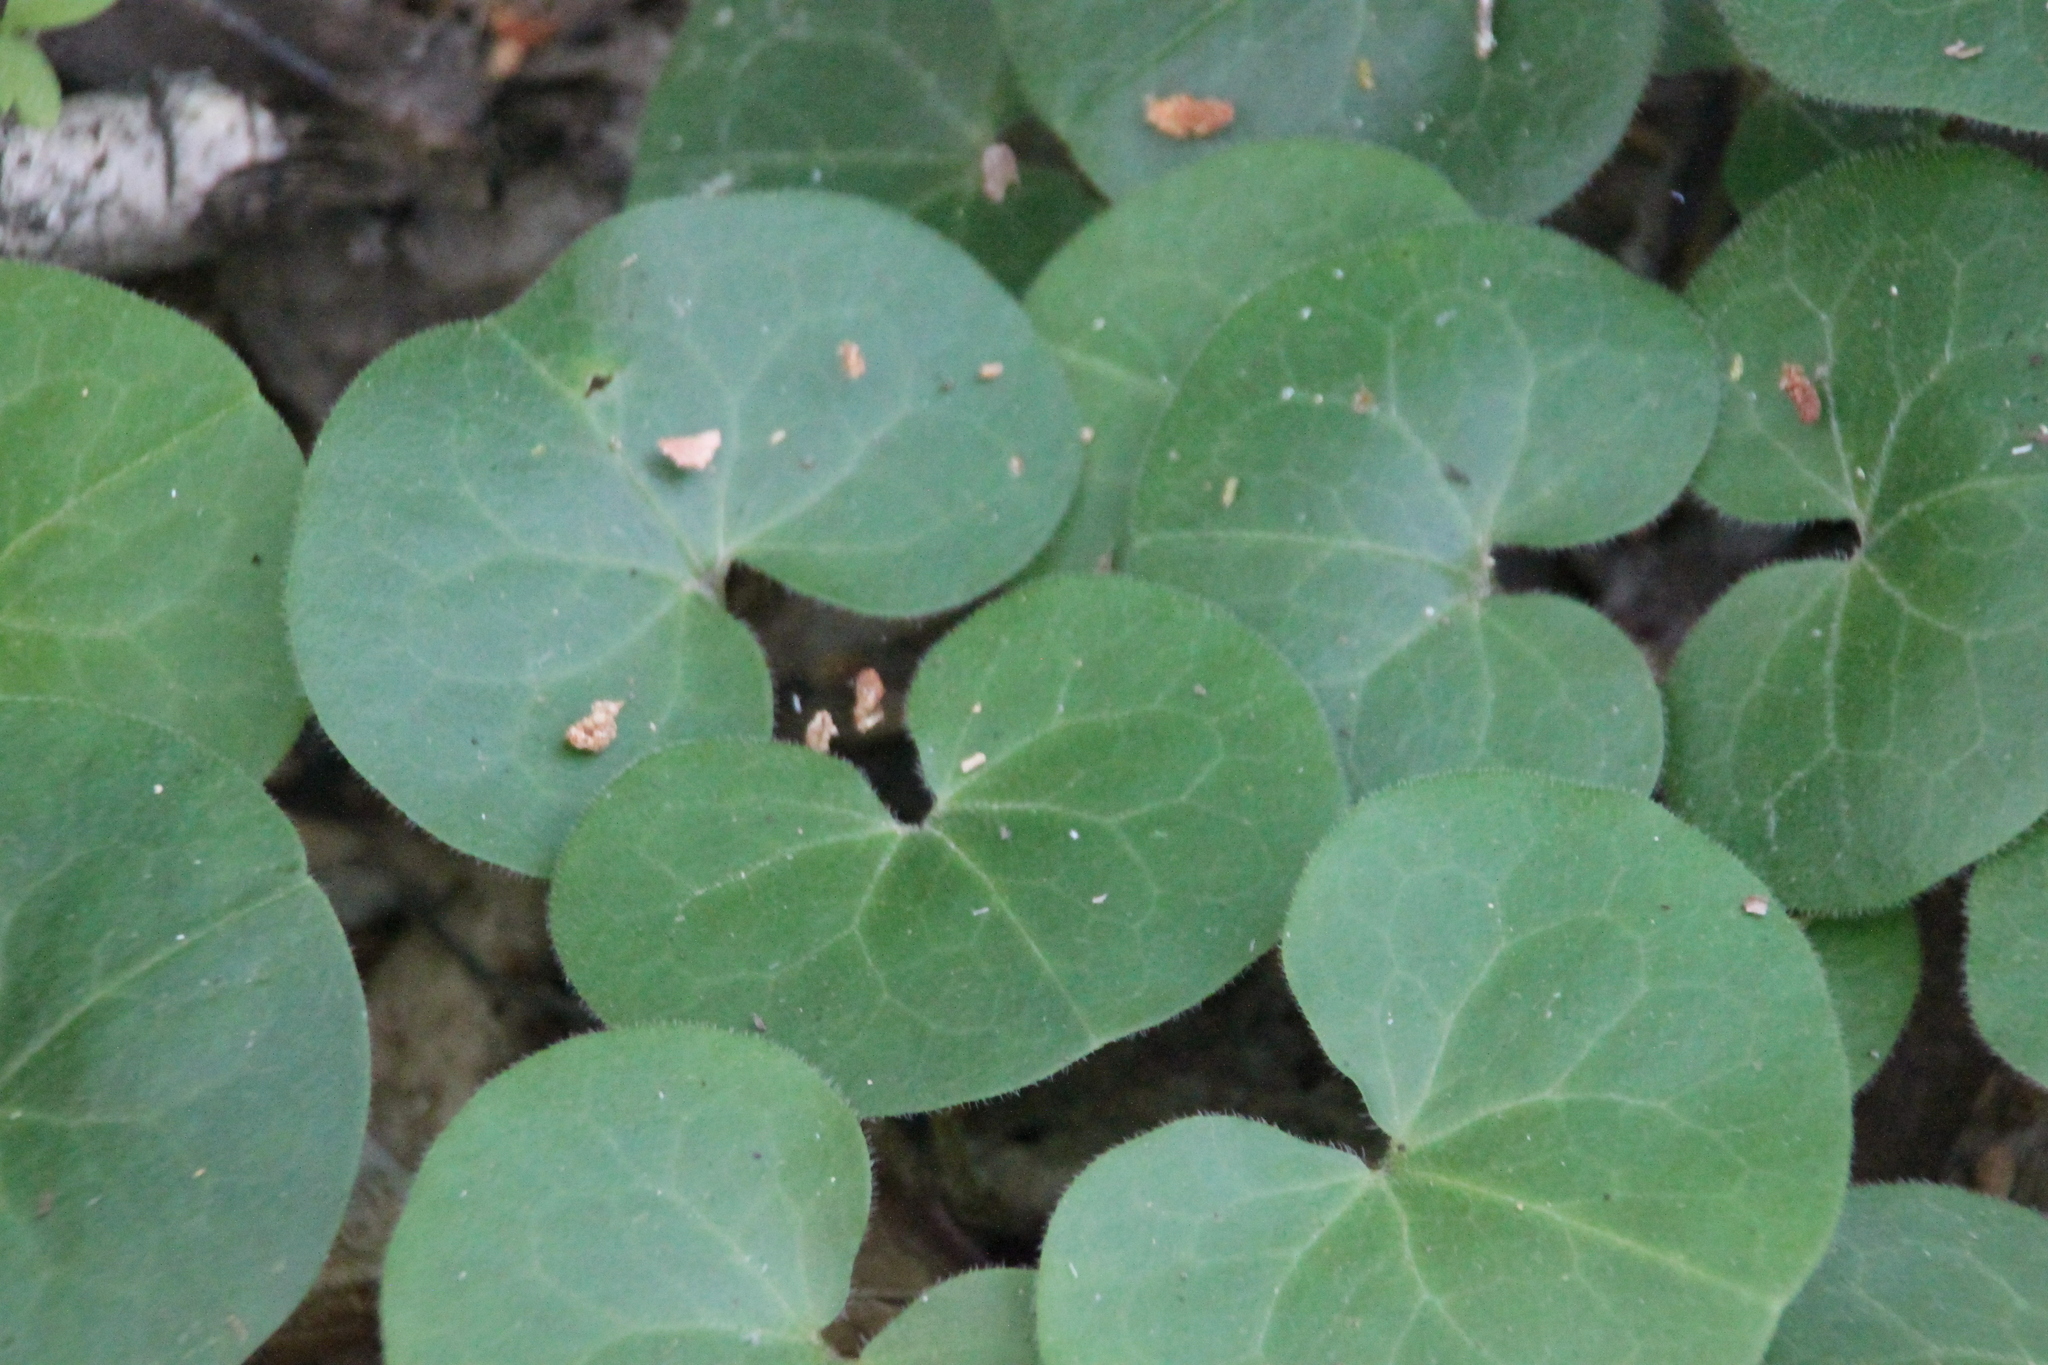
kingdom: Plantae
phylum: Tracheophyta
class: Magnoliopsida
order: Piperales
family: Aristolochiaceae
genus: Asarum
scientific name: Asarum europaeum
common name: Asarabacca
